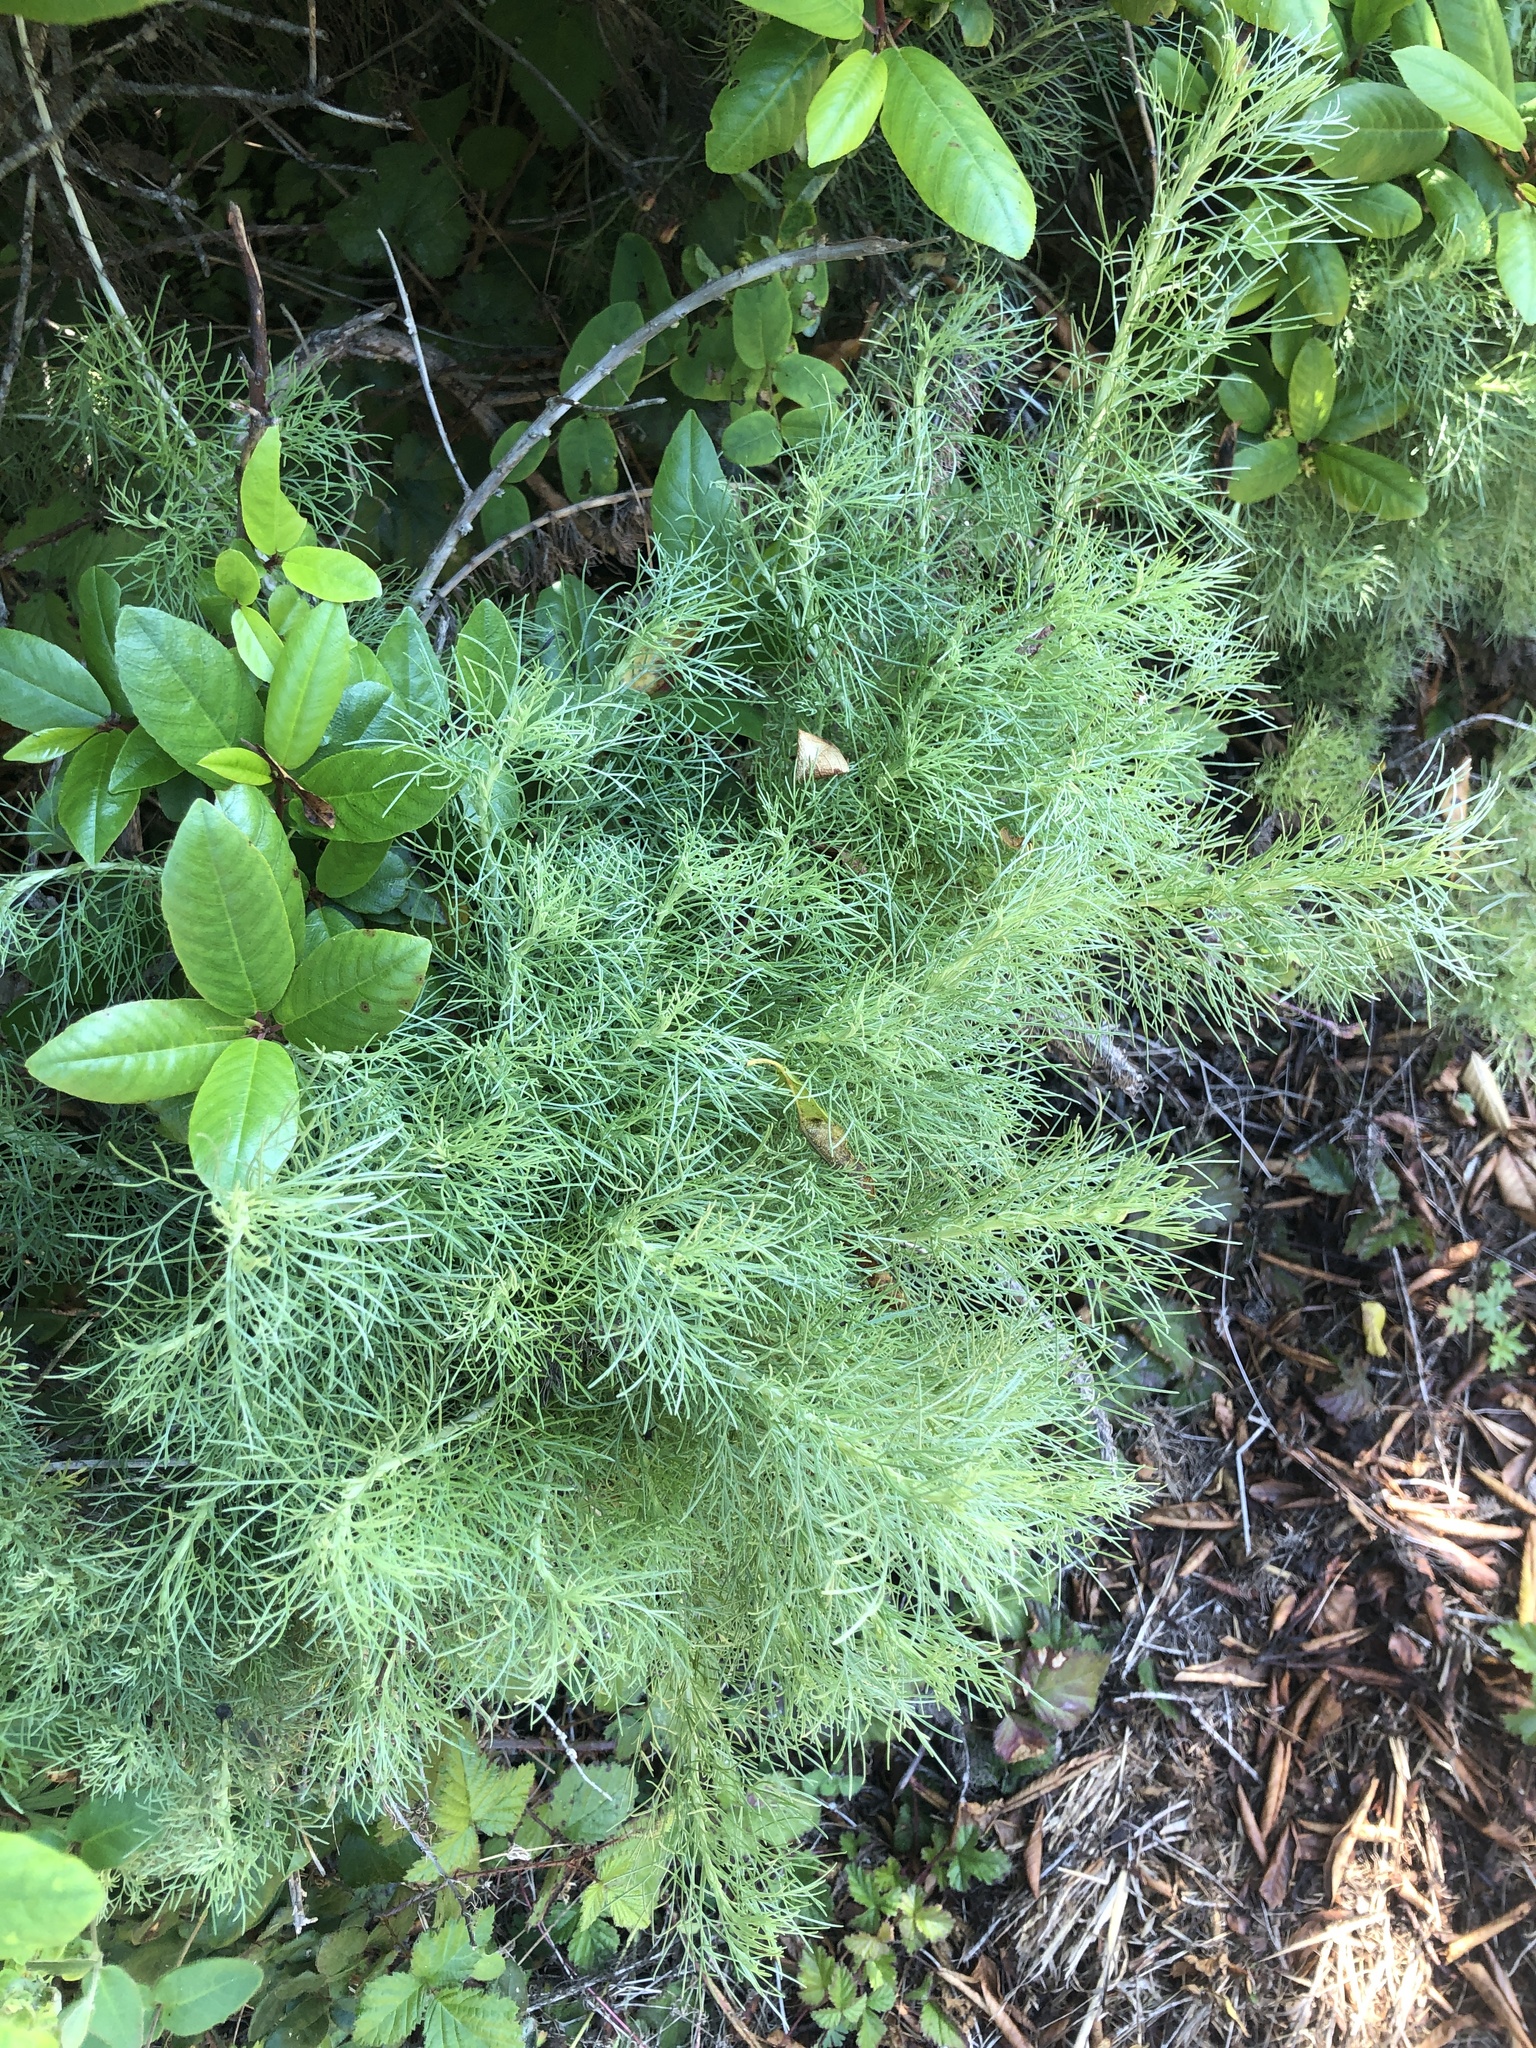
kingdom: Plantae
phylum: Tracheophyta
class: Magnoliopsida
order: Asterales
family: Asteraceae
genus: Artemisia
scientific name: Artemisia californica
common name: California sagebrush
